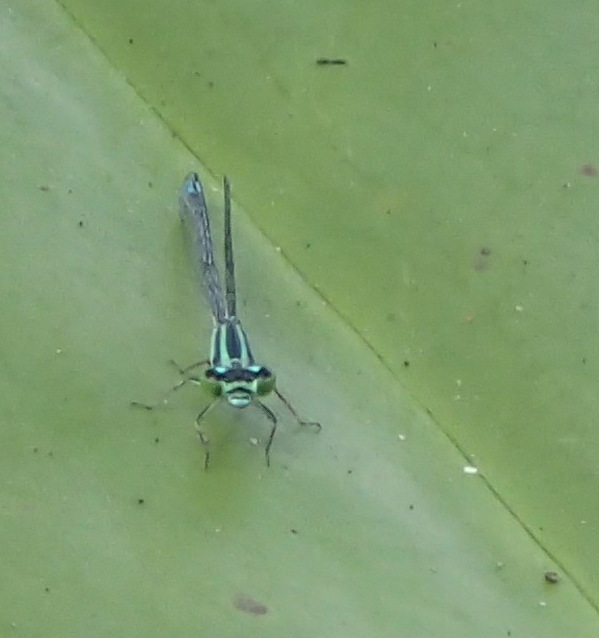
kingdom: Animalia
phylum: Arthropoda
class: Insecta
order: Odonata
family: Coenagrionidae
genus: Ischnura
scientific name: Ischnura kellicotti
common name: Lilypad forktail
